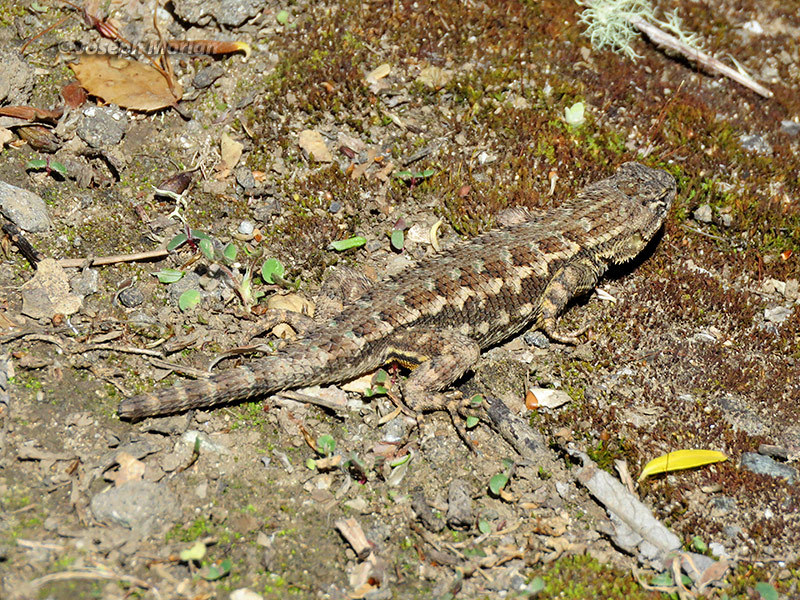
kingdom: Animalia
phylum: Chordata
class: Squamata
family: Phrynosomatidae
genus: Sceloporus
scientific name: Sceloporus occidentalis
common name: Western fence lizard
